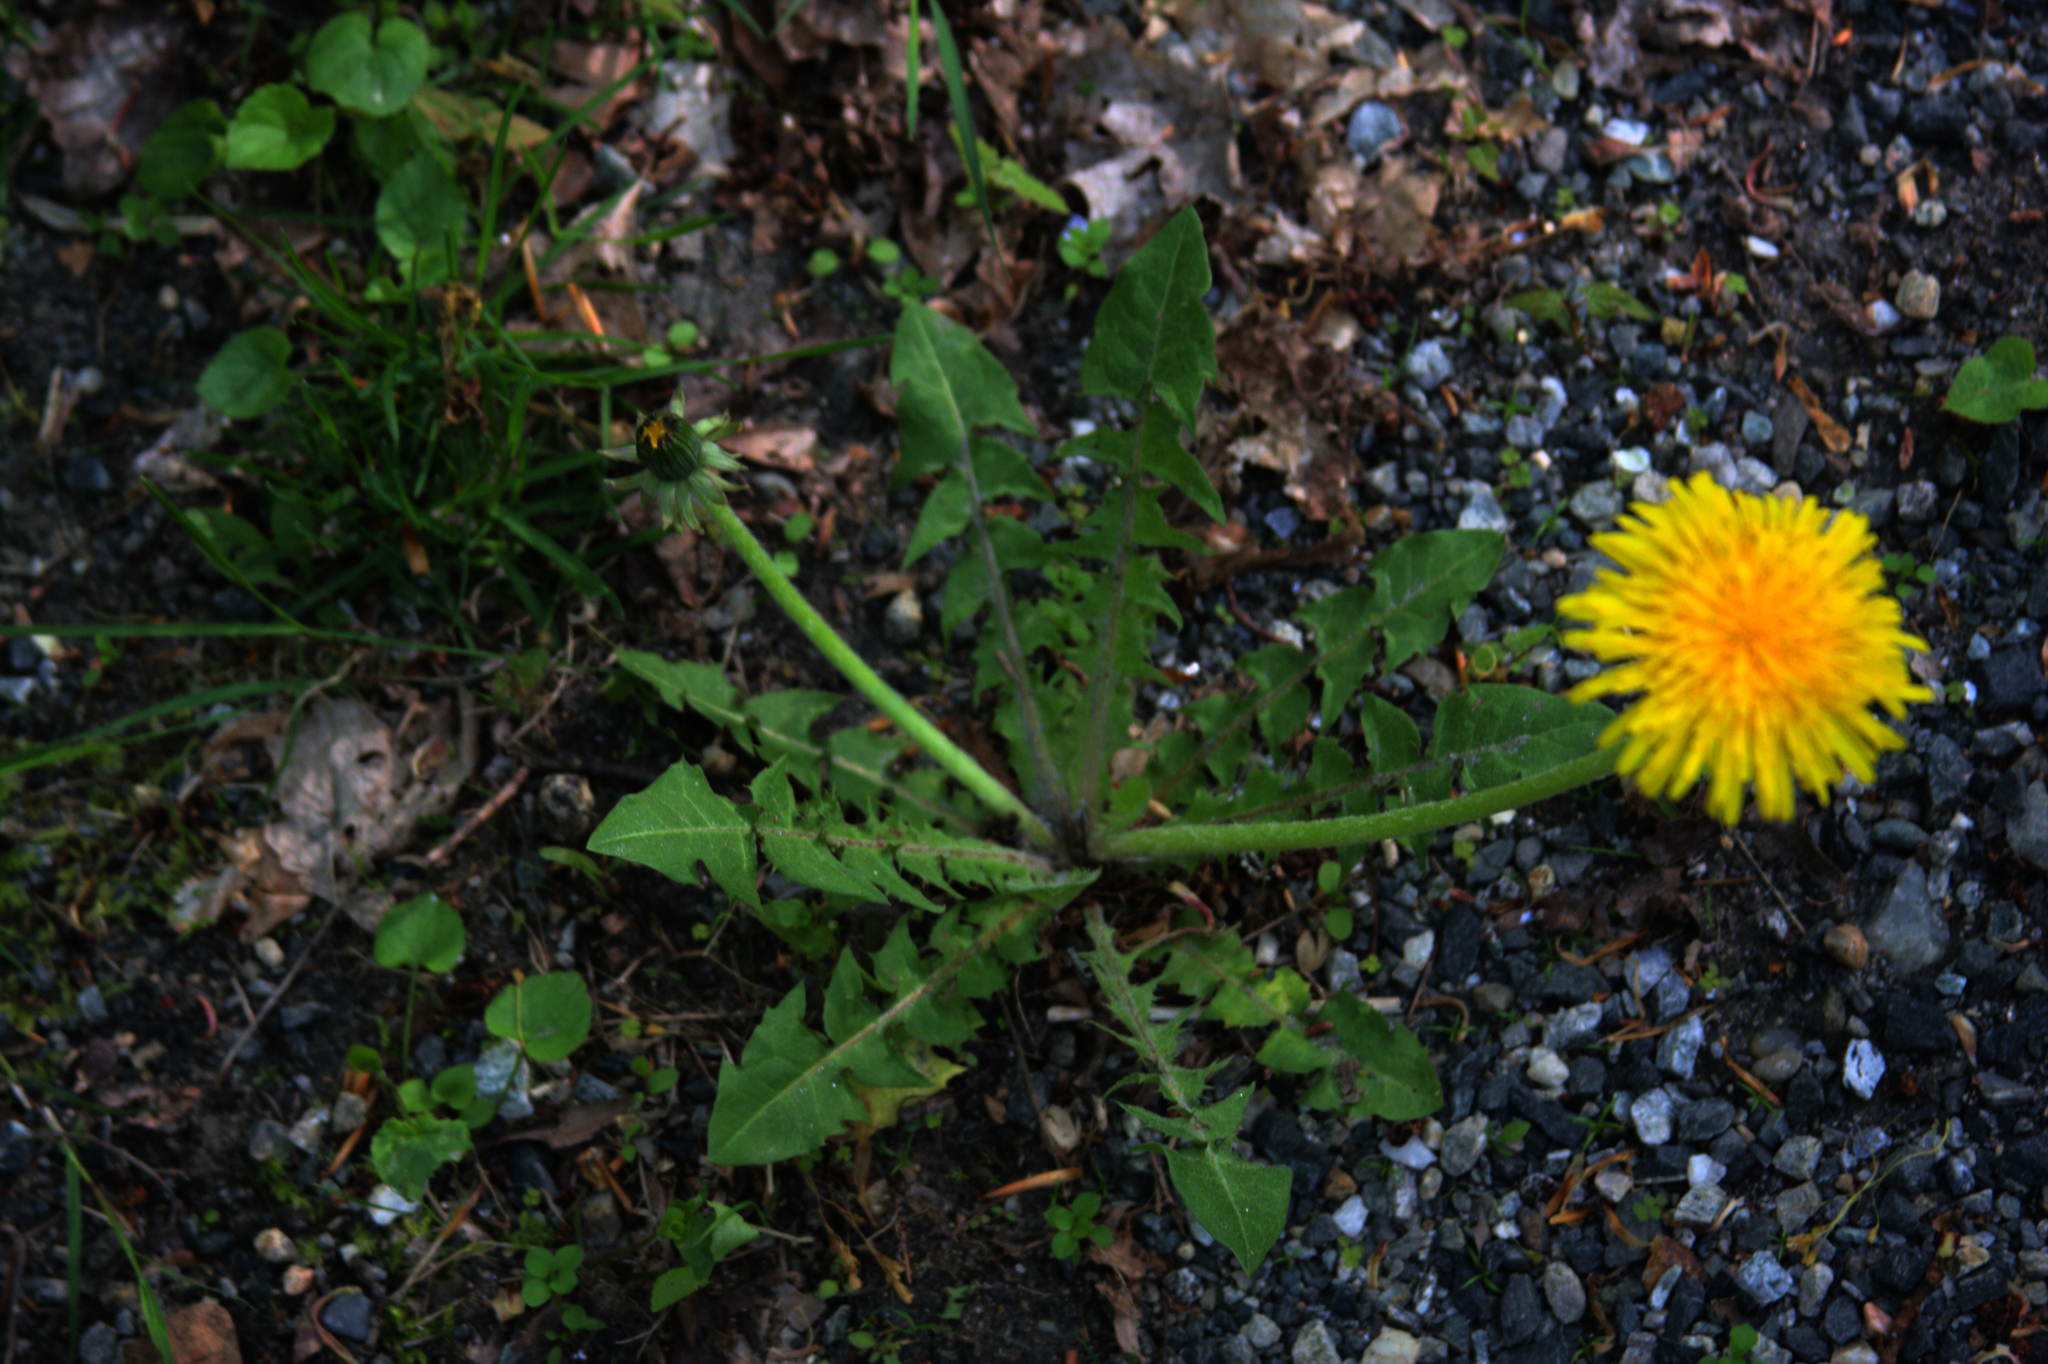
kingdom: Plantae
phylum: Tracheophyta
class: Magnoliopsida
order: Asterales
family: Asteraceae
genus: Taraxacum
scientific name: Taraxacum officinale
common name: Common dandelion
